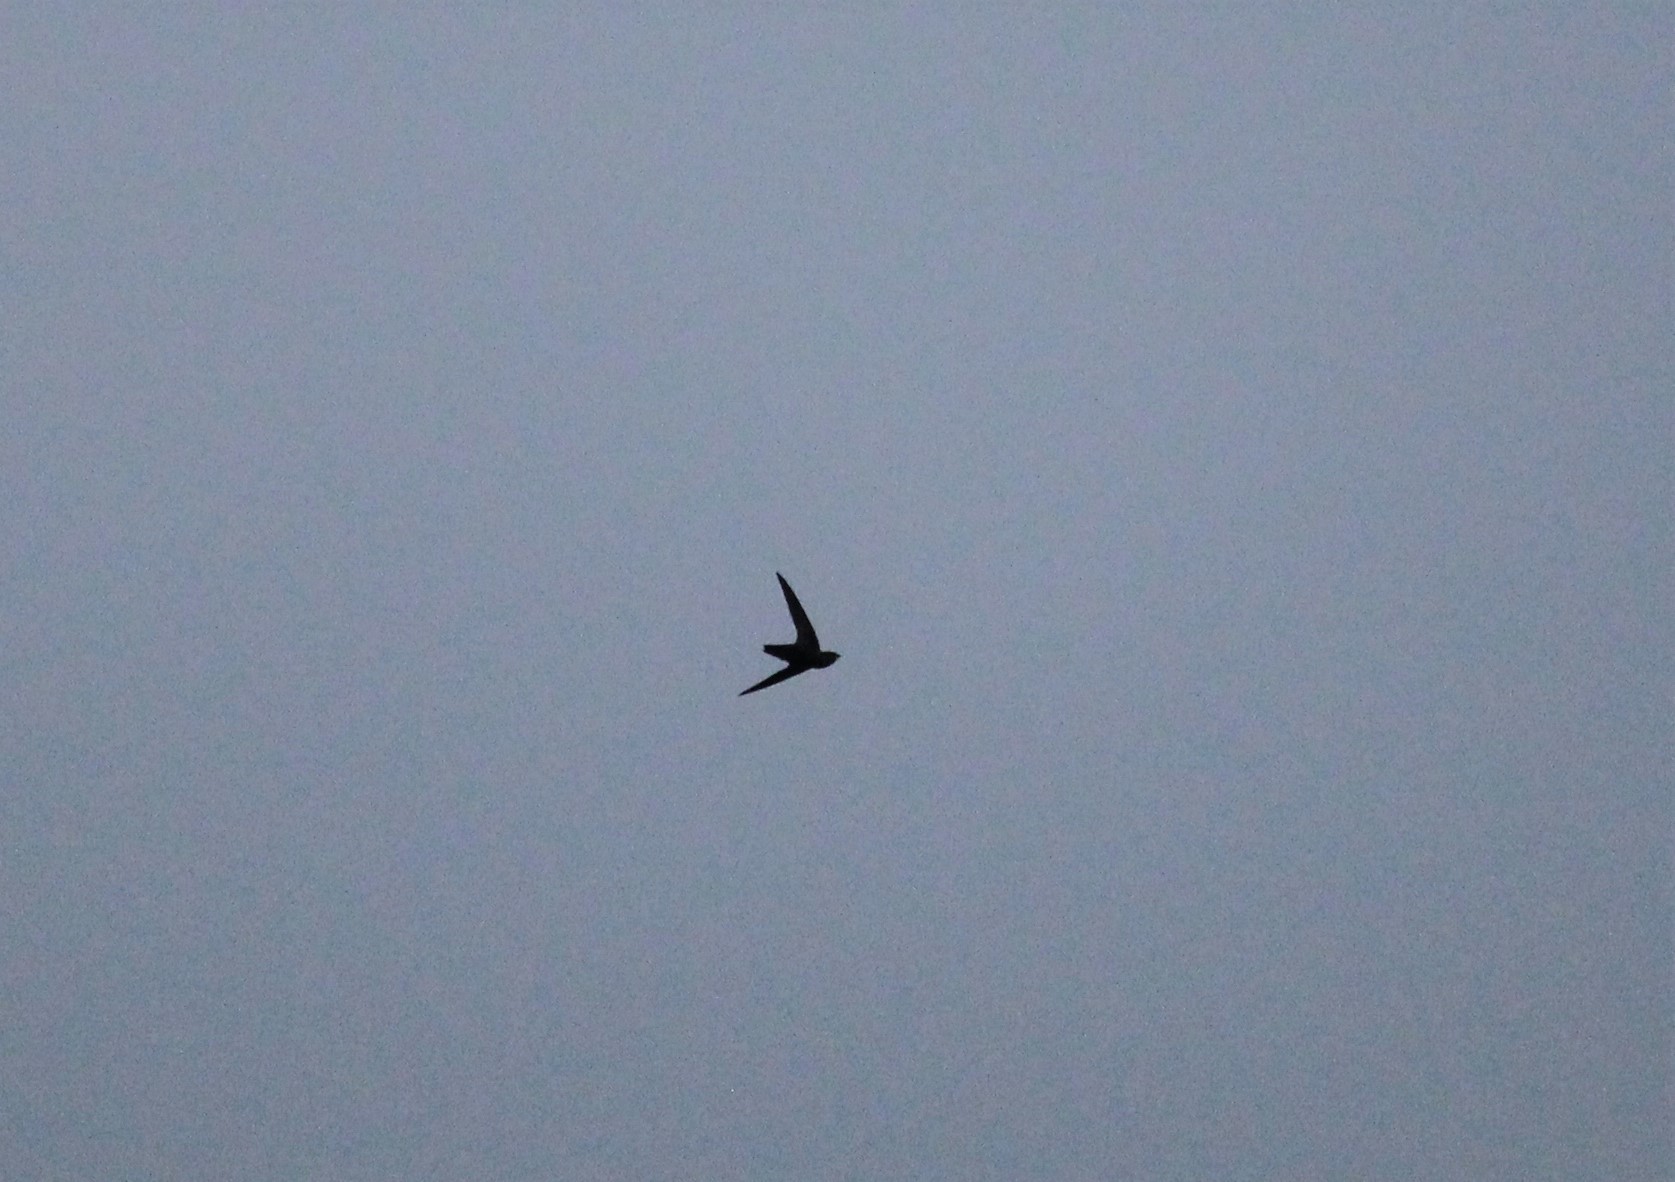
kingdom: Animalia
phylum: Chordata
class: Aves
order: Apodiformes
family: Apodidae
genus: Chaetura
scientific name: Chaetura pelagica
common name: Chimney swift
